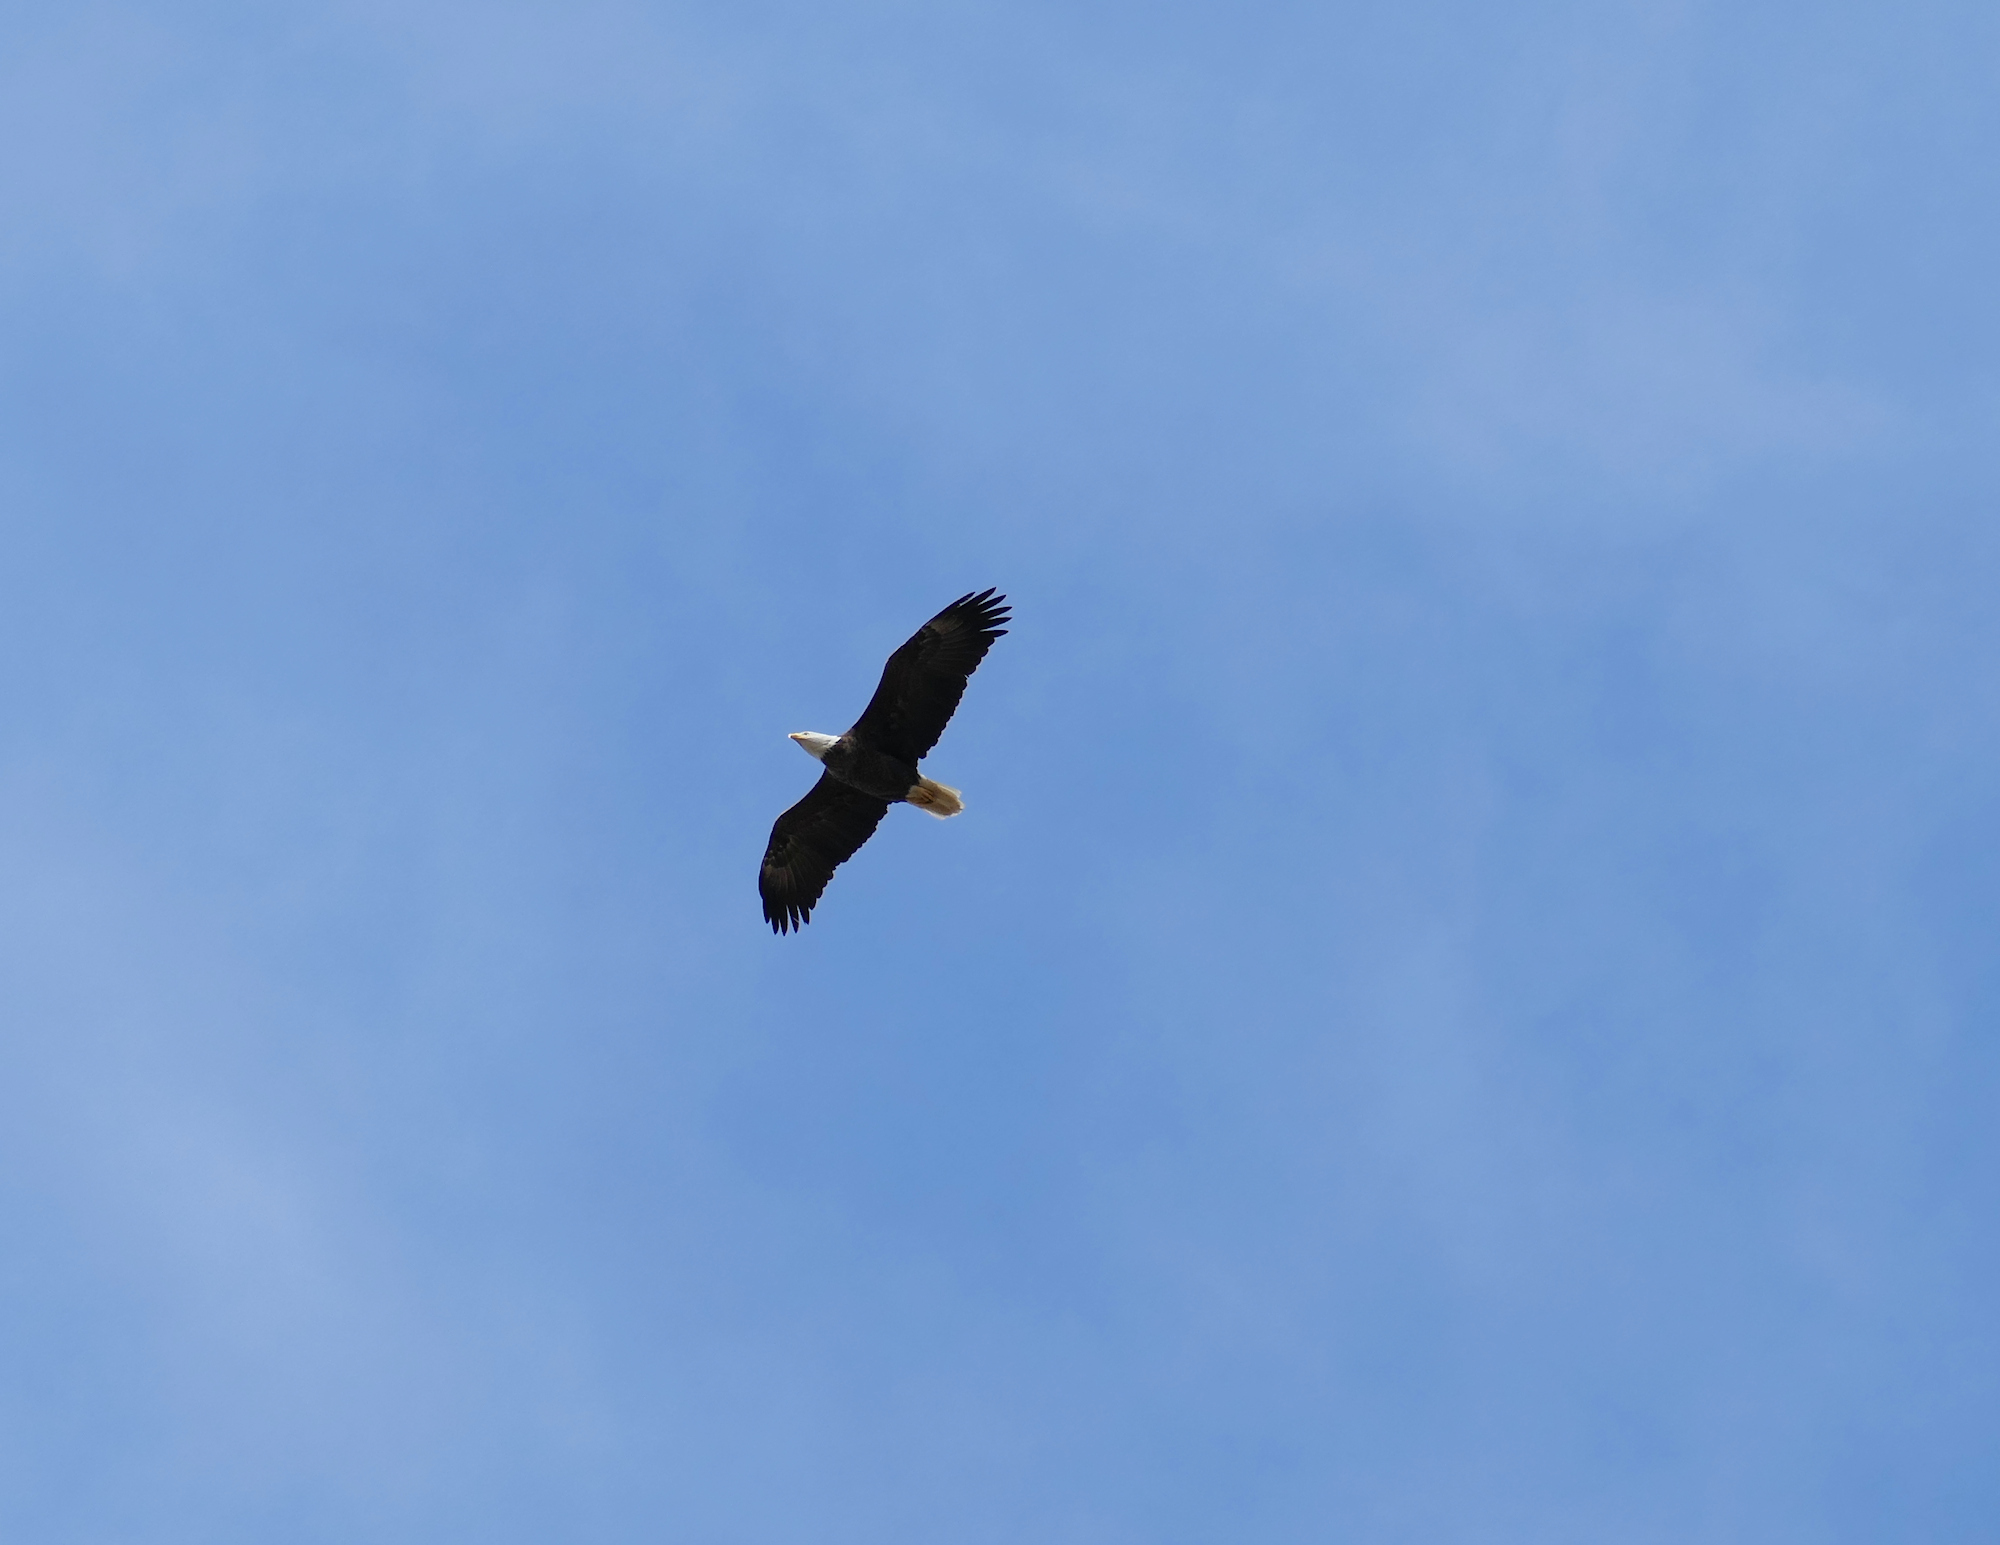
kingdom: Animalia
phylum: Chordata
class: Aves
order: Accipitriformes
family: Accipitridae
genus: Haliaeetus
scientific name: Haliaeetus leucocephalus
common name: Bald eagle
